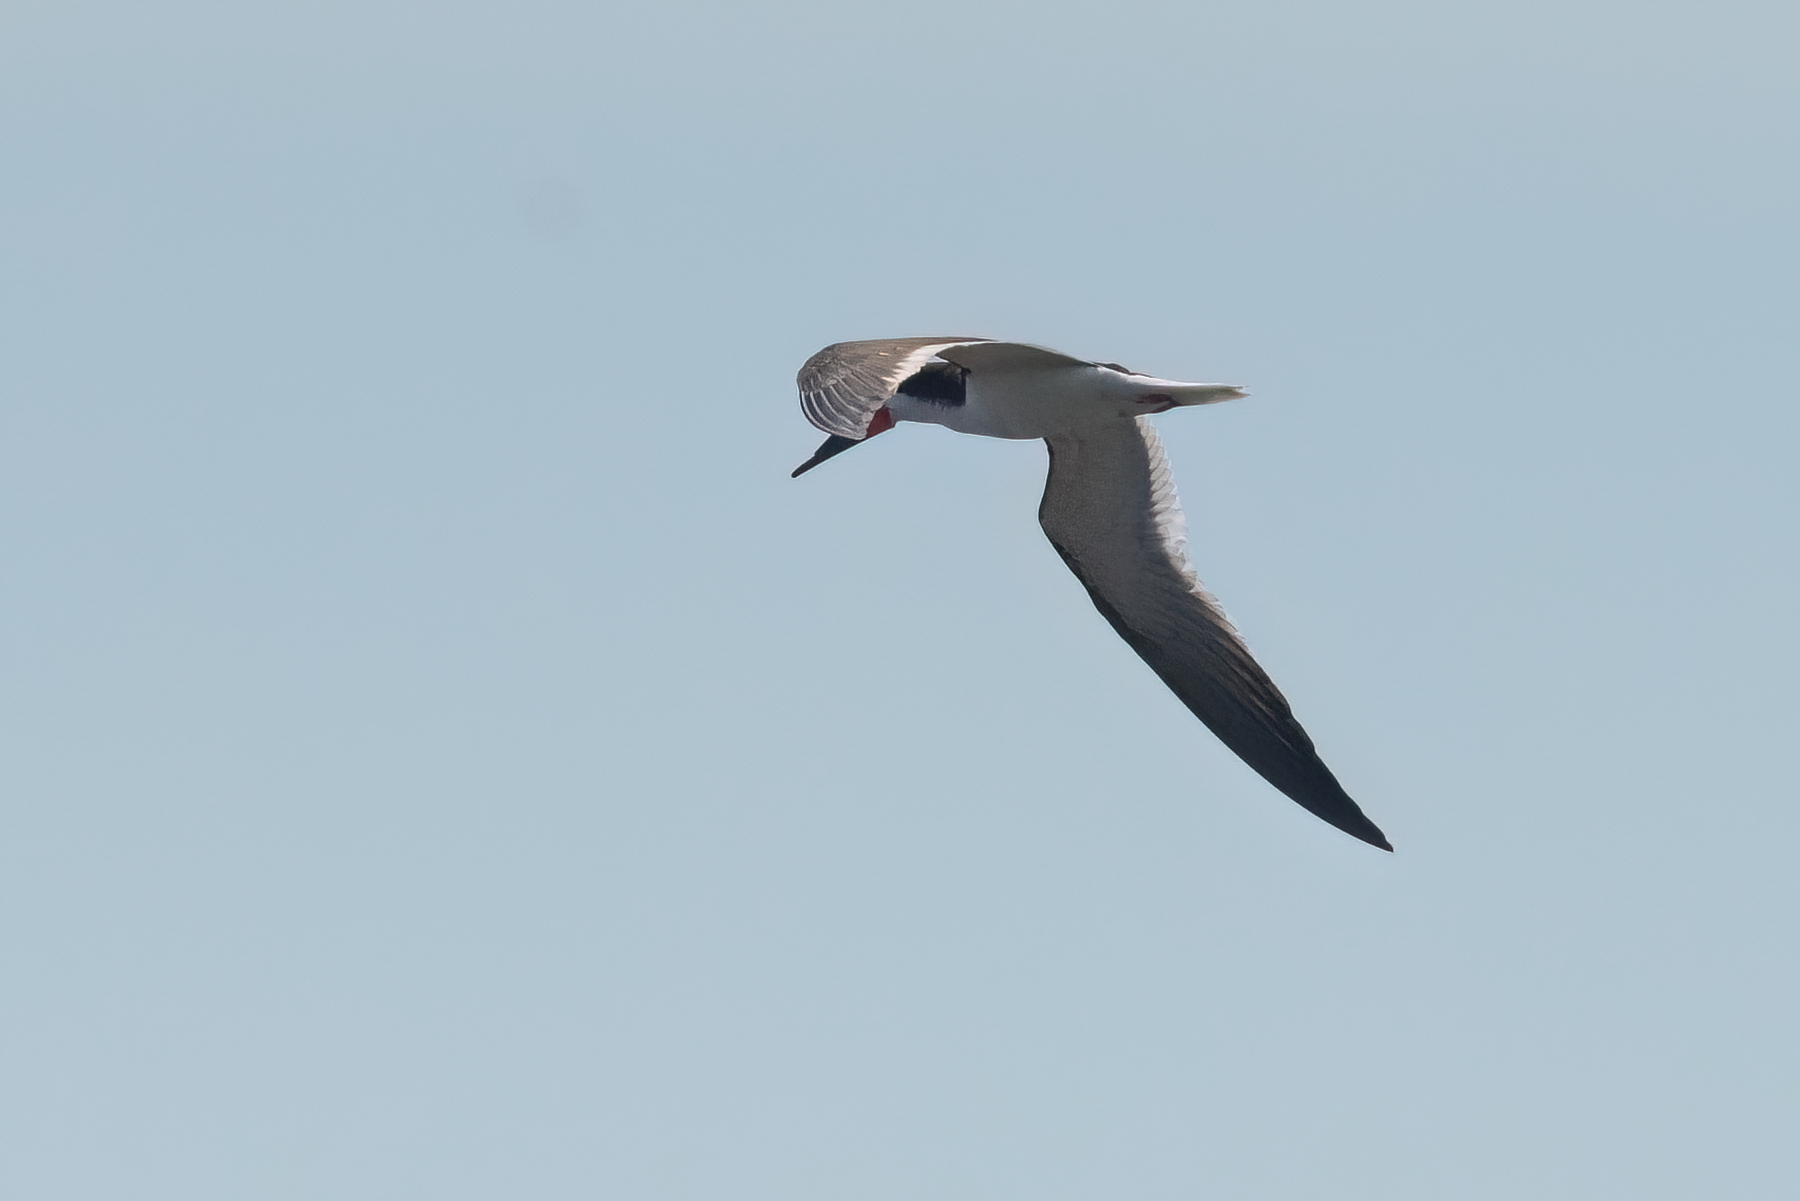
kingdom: Animalia
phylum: Chordata
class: Aves
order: Charadriiformes
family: Laridae
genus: Rynchops
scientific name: Rynchops niger
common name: Black skimmer
